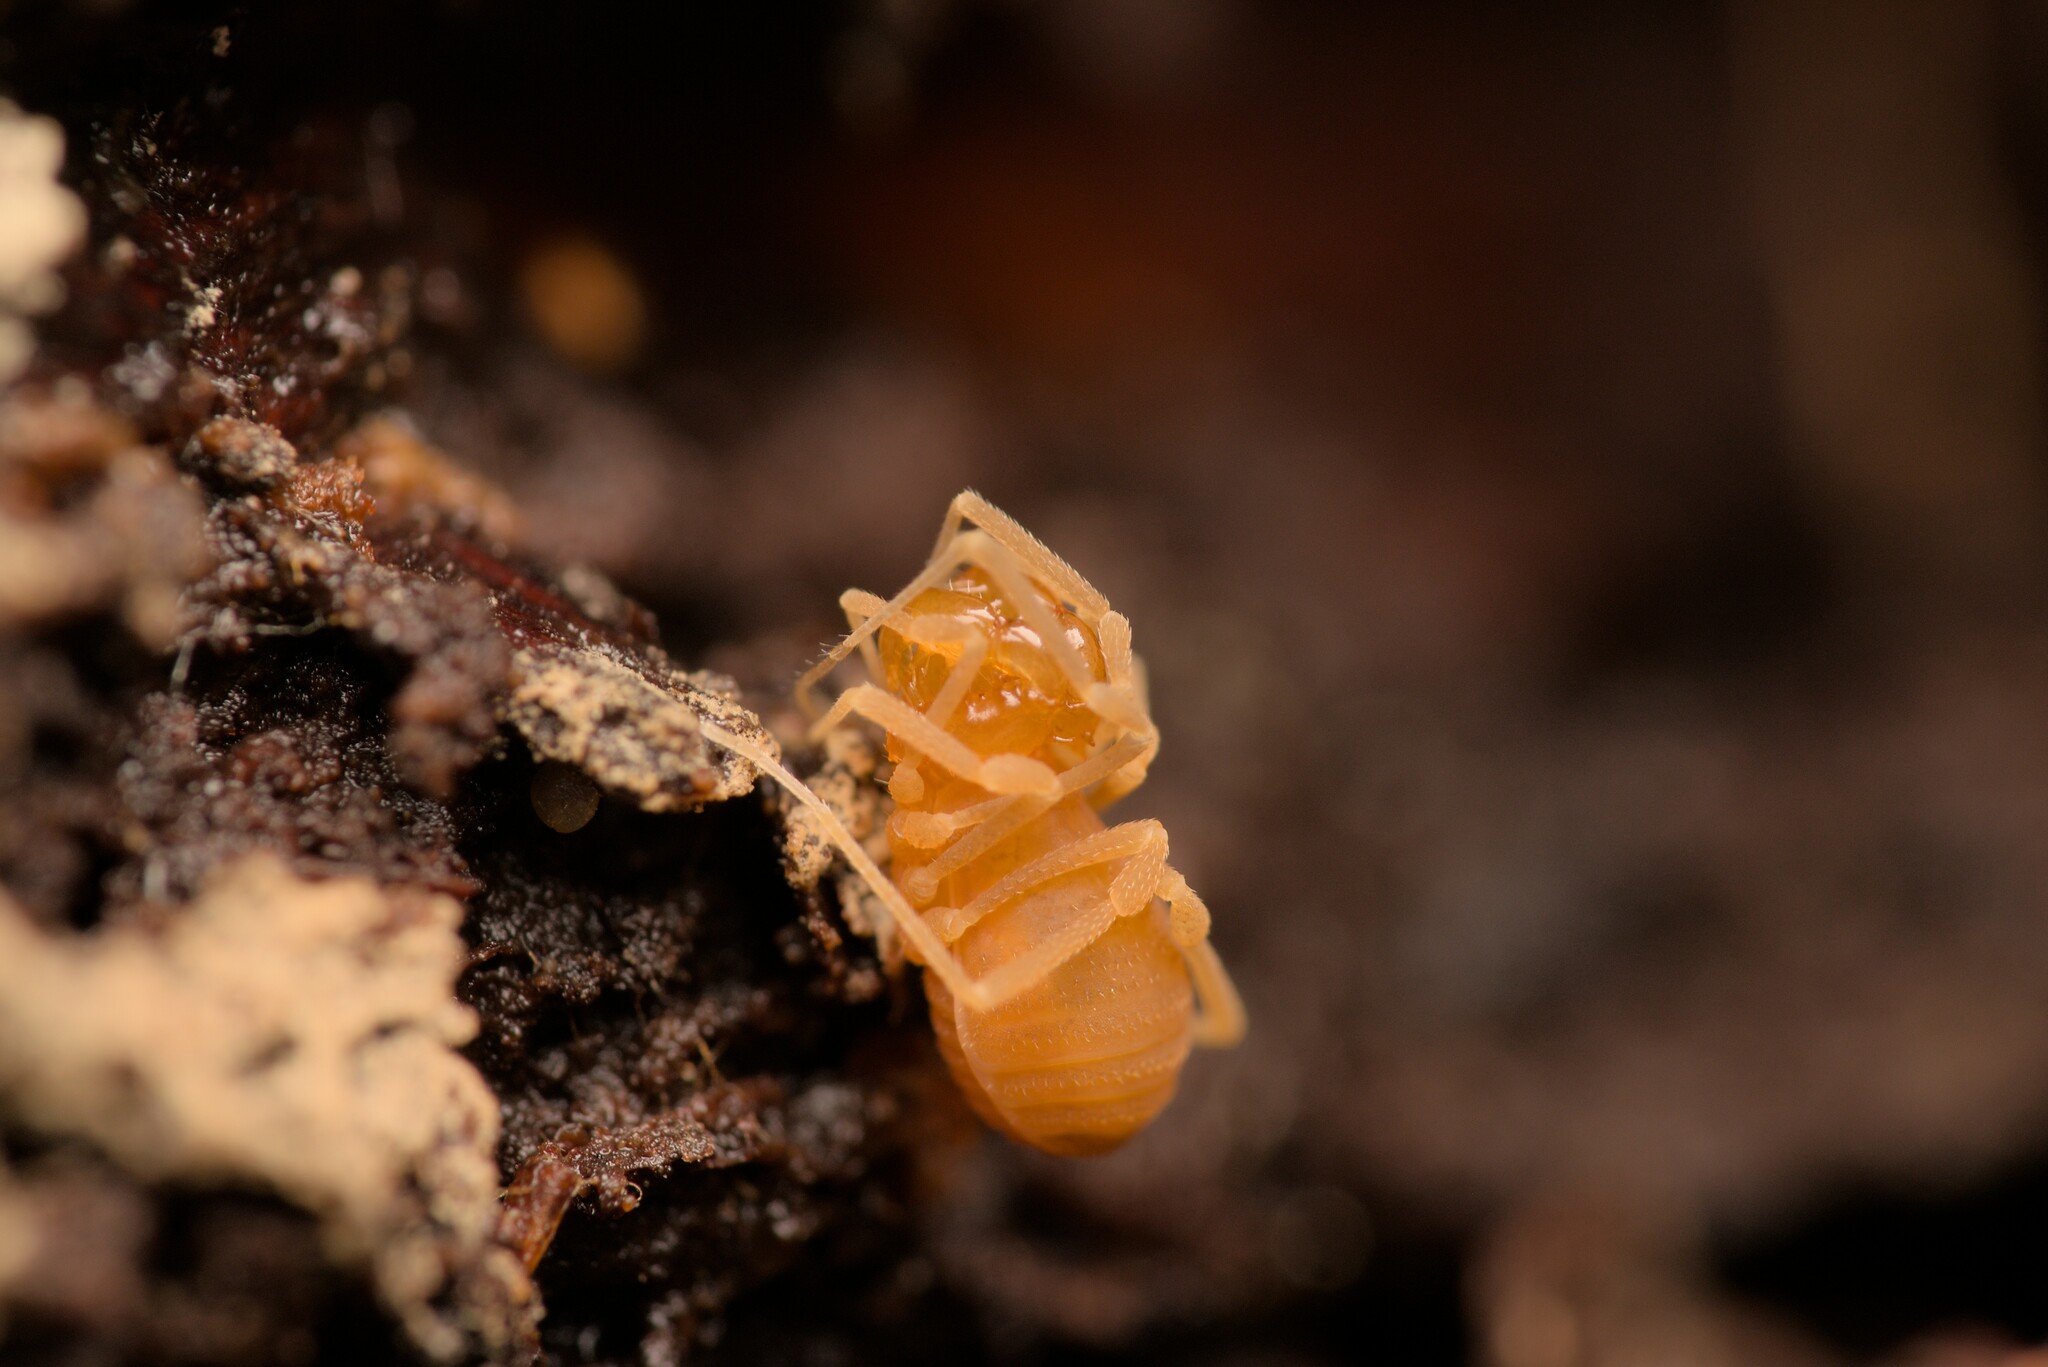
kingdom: Animalia
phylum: Arthropoda
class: Arachnida
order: Opiliones
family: Cladonychiidae
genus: Holoscotolemon
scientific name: Holoscotolemon querilhaci
